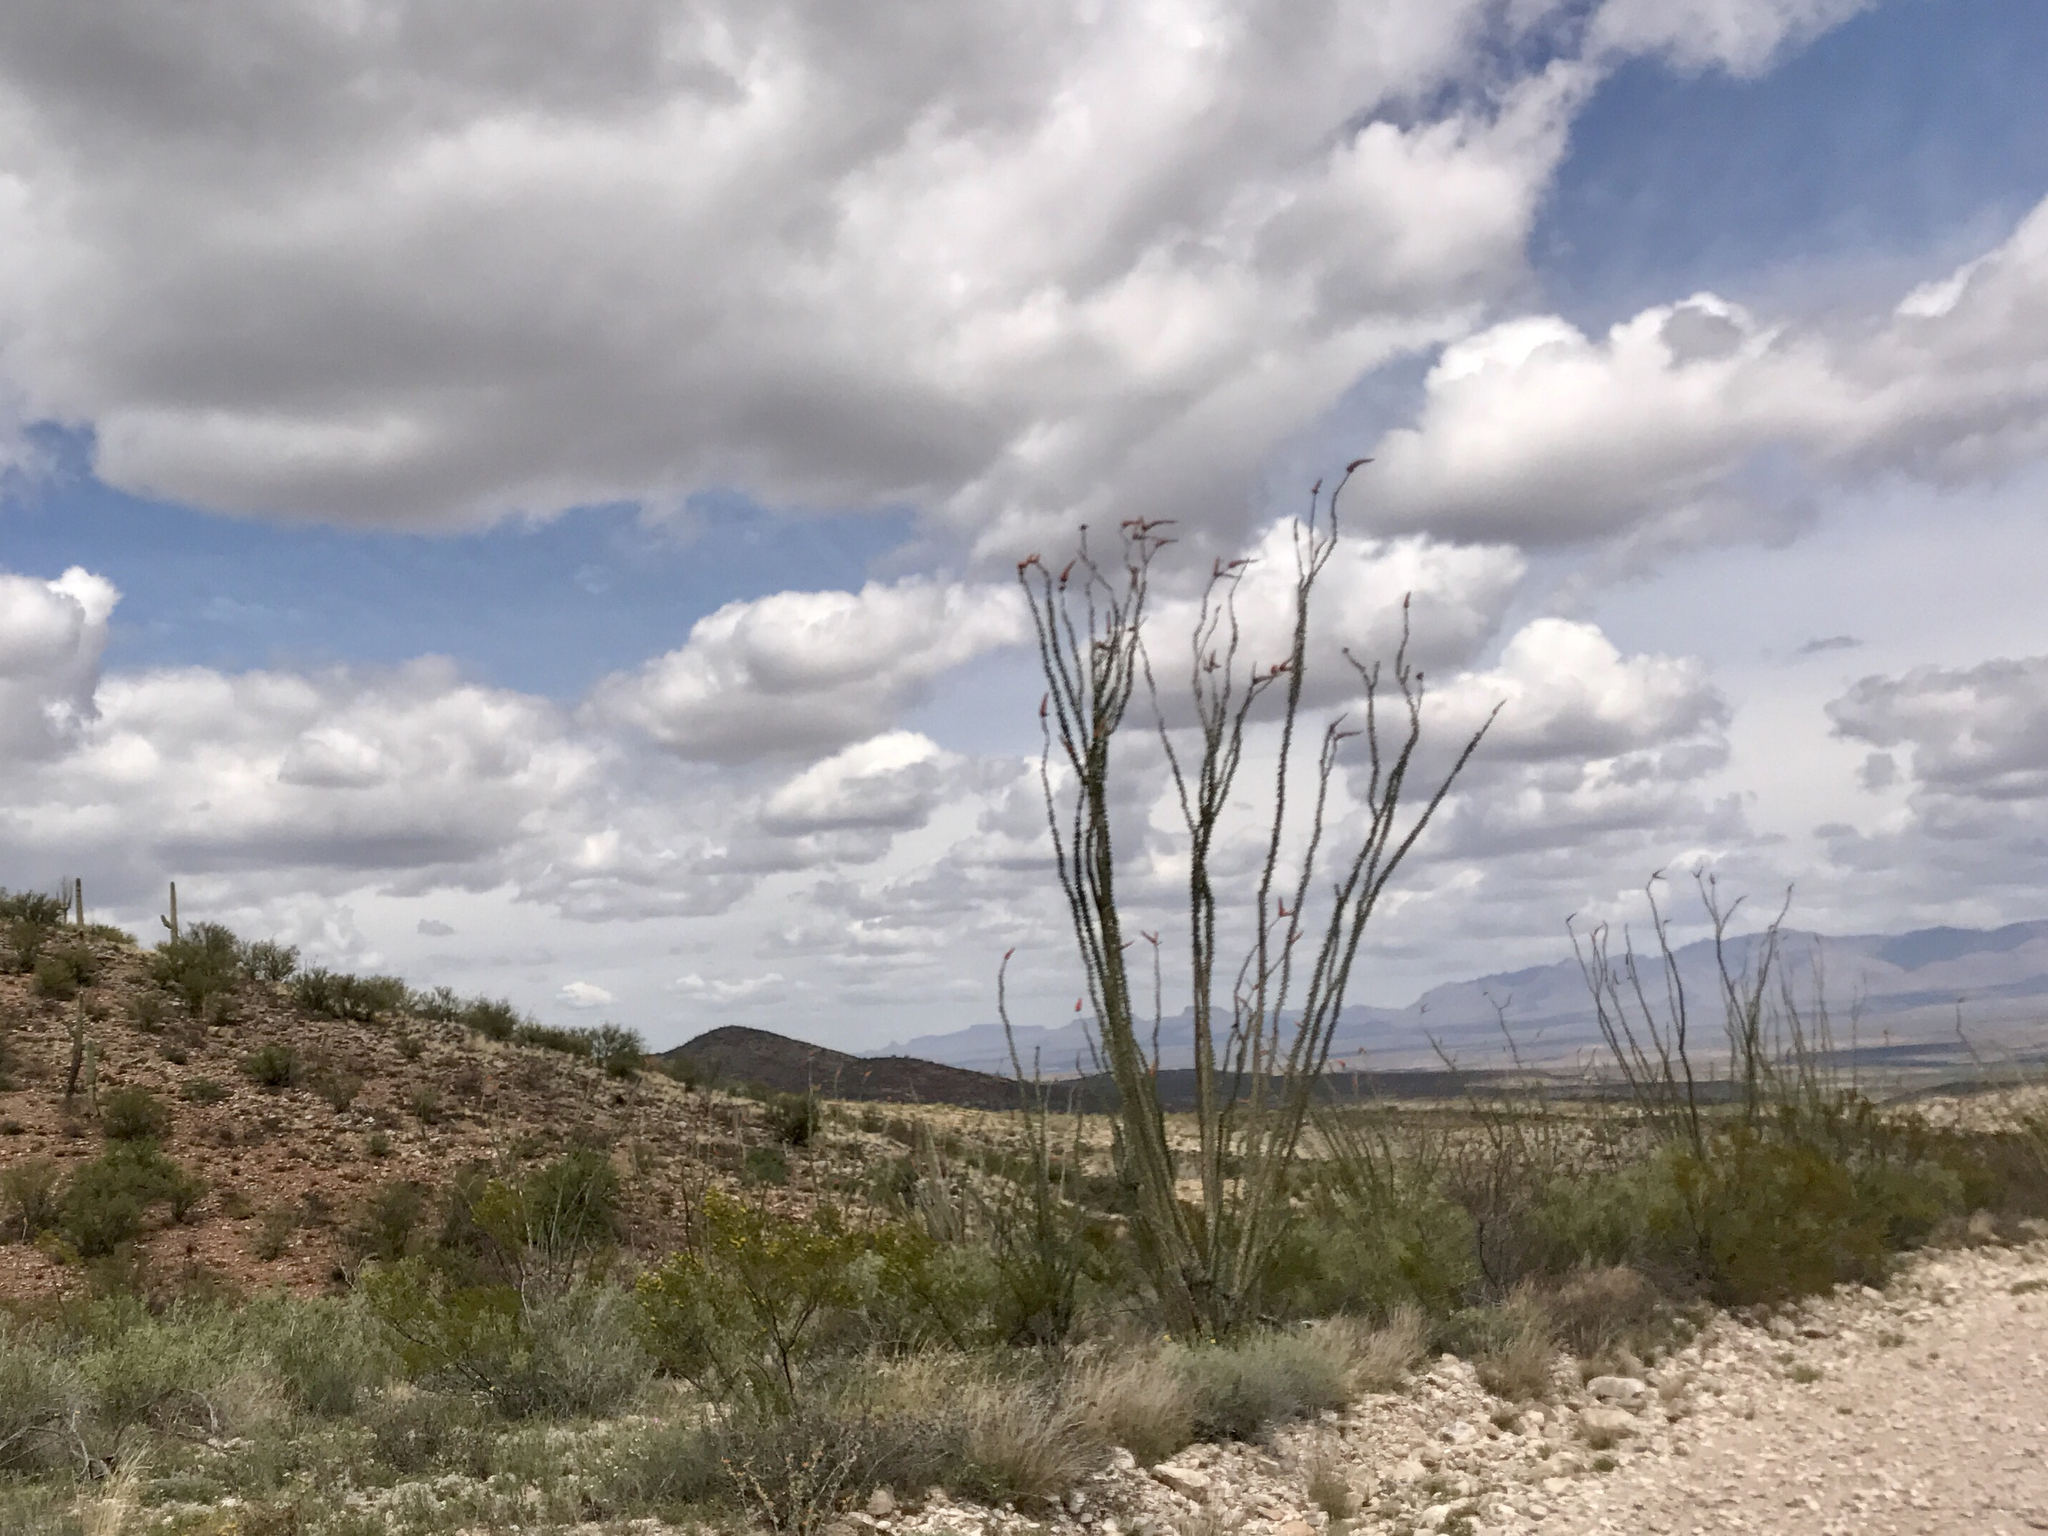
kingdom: Plantae
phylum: Tracheophyta
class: Magnoliopsida
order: Ericales
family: Fouquieriaceae
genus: Fouquieria
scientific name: Fouquieria splendens
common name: Vine-cactus
